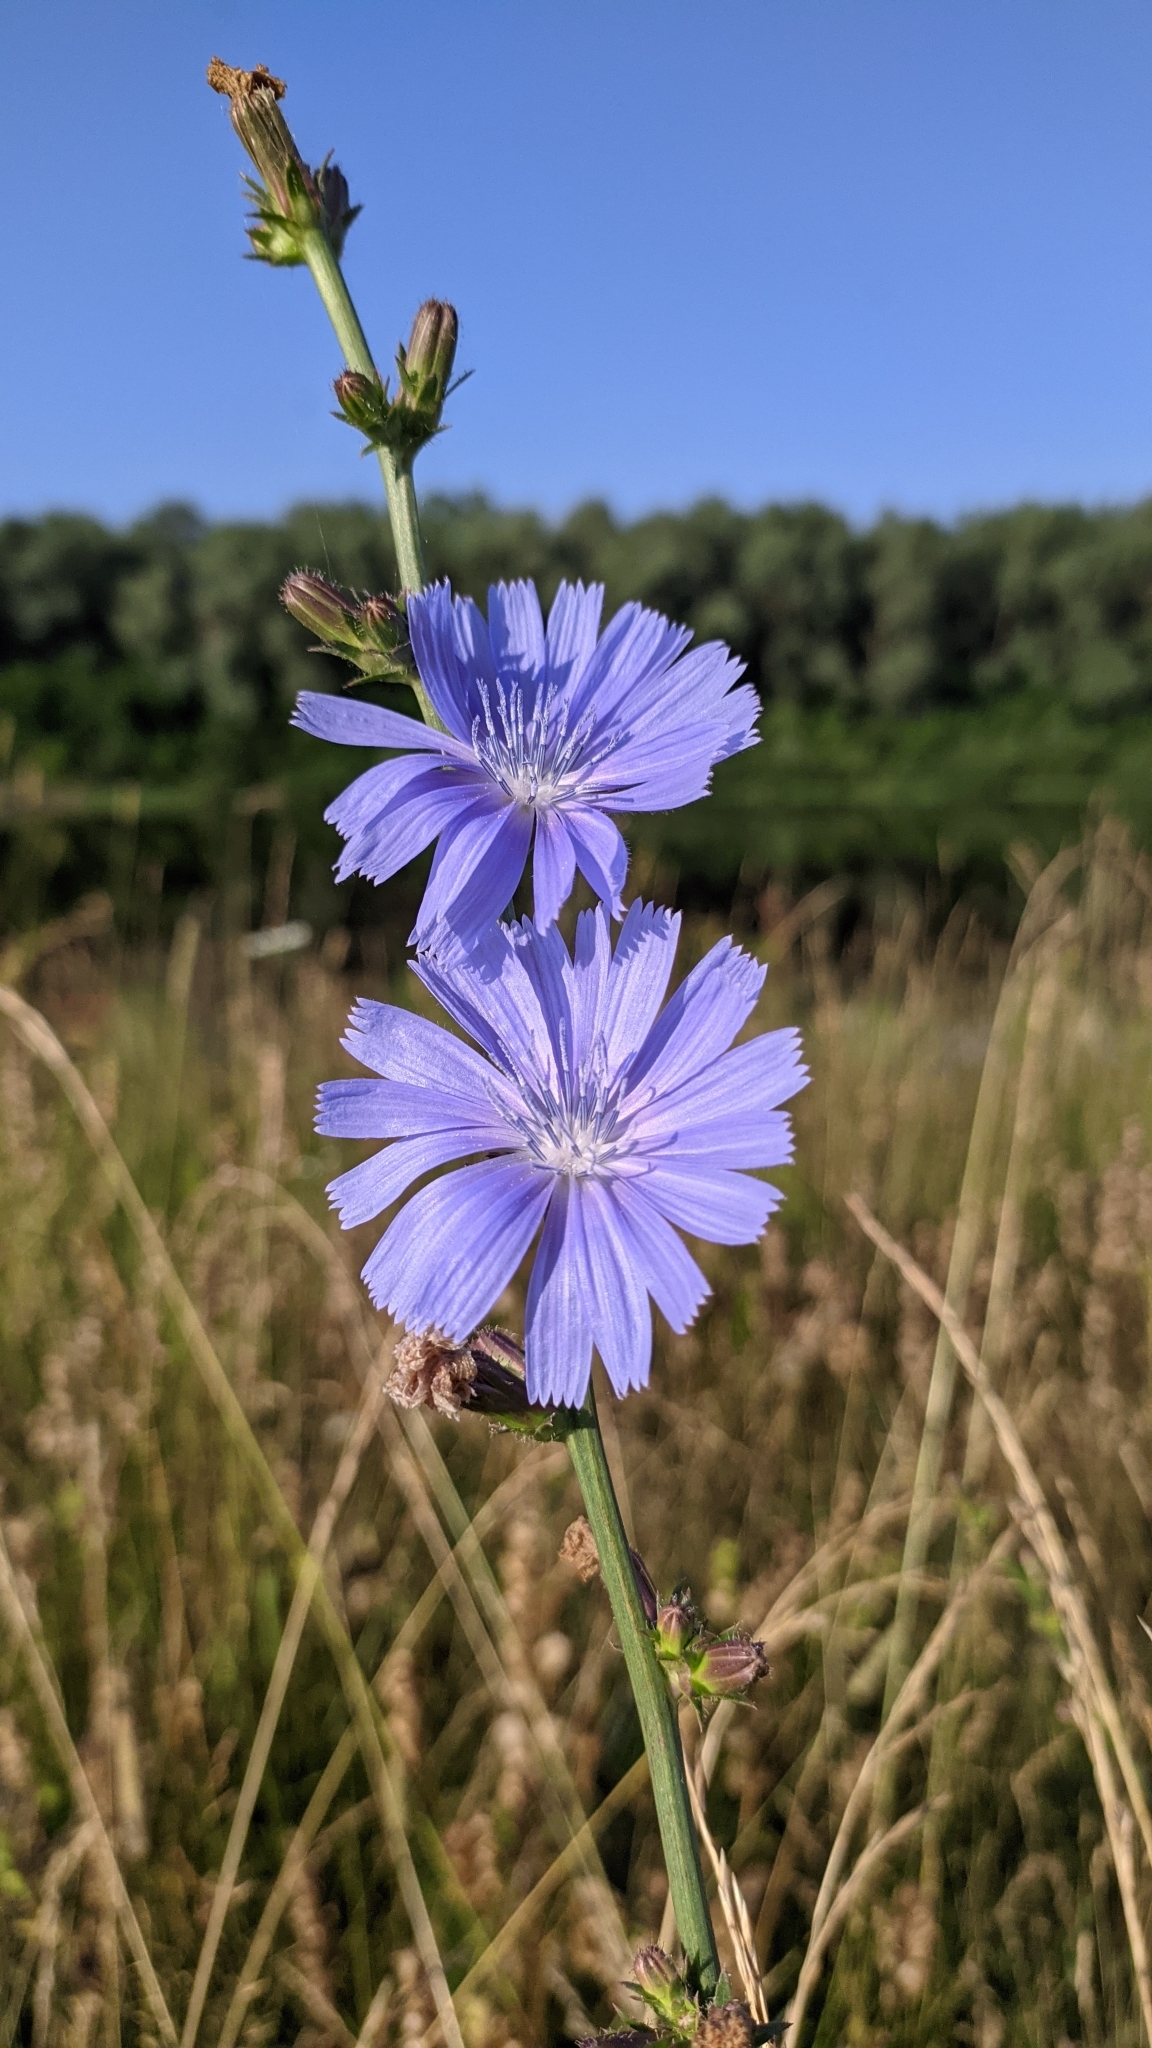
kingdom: Plantae
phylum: Tracheophyta
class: Magnoliopsida
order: Asterales
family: Asteraceae
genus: Cichorium
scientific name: Cichorium intybus
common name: Chicory
